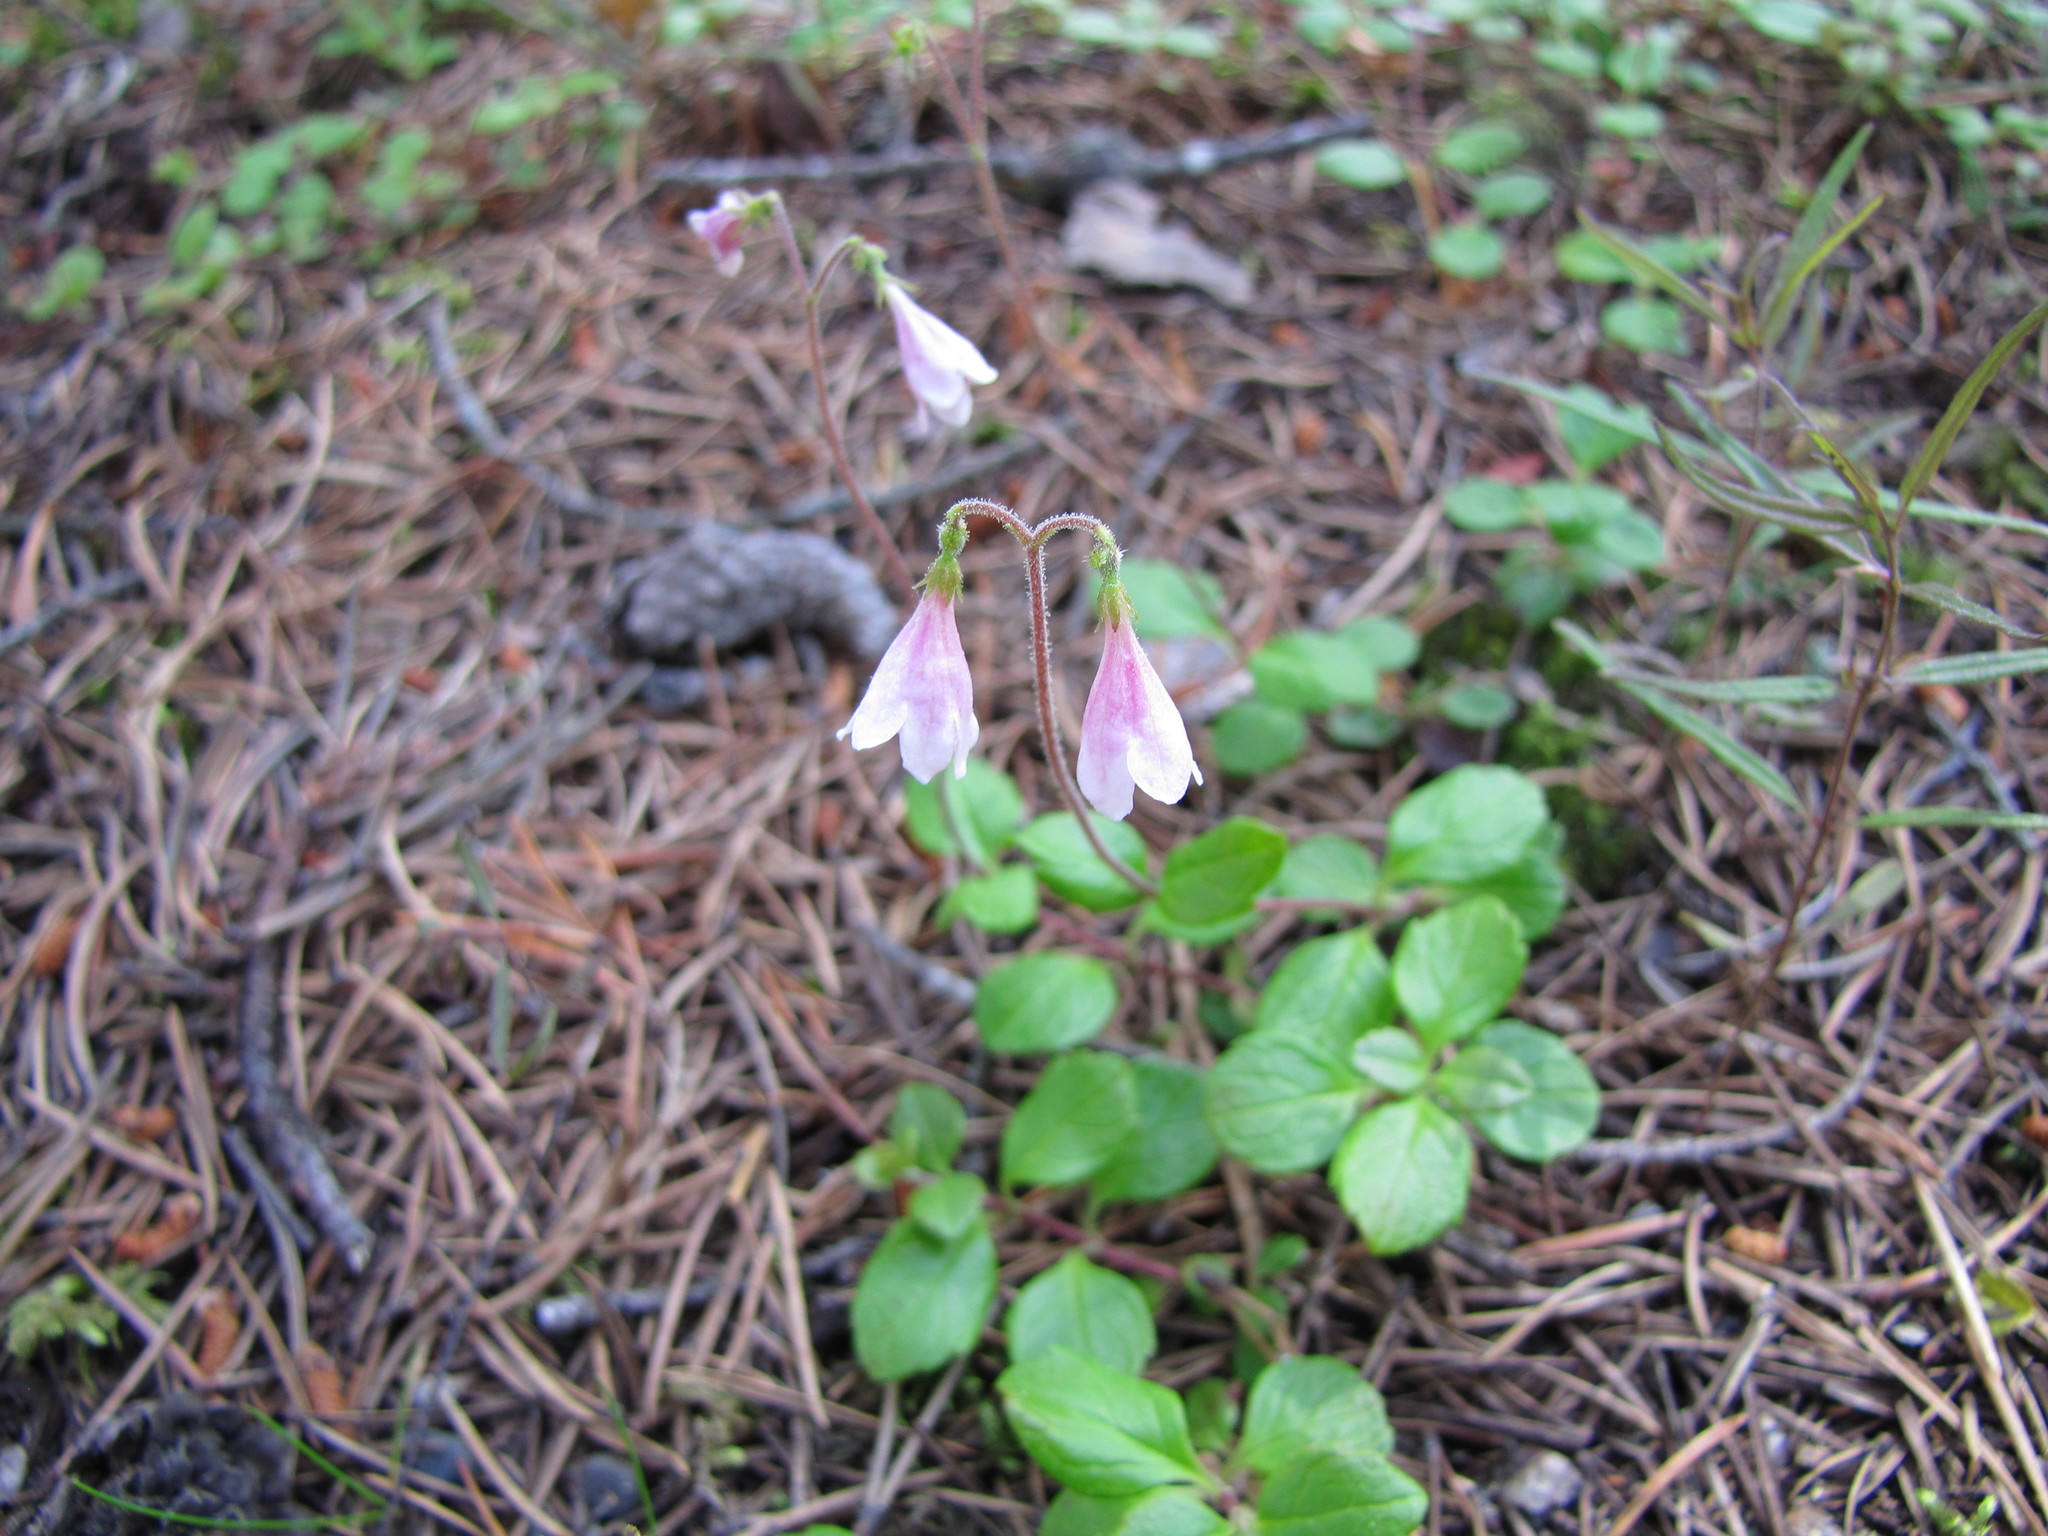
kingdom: Plantae
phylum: Tracheophyta
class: Magnoliopsida
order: Dipsacales
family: Caprifoliaceae
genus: Linnaea
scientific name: Linnaea borealis
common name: Twinflower
